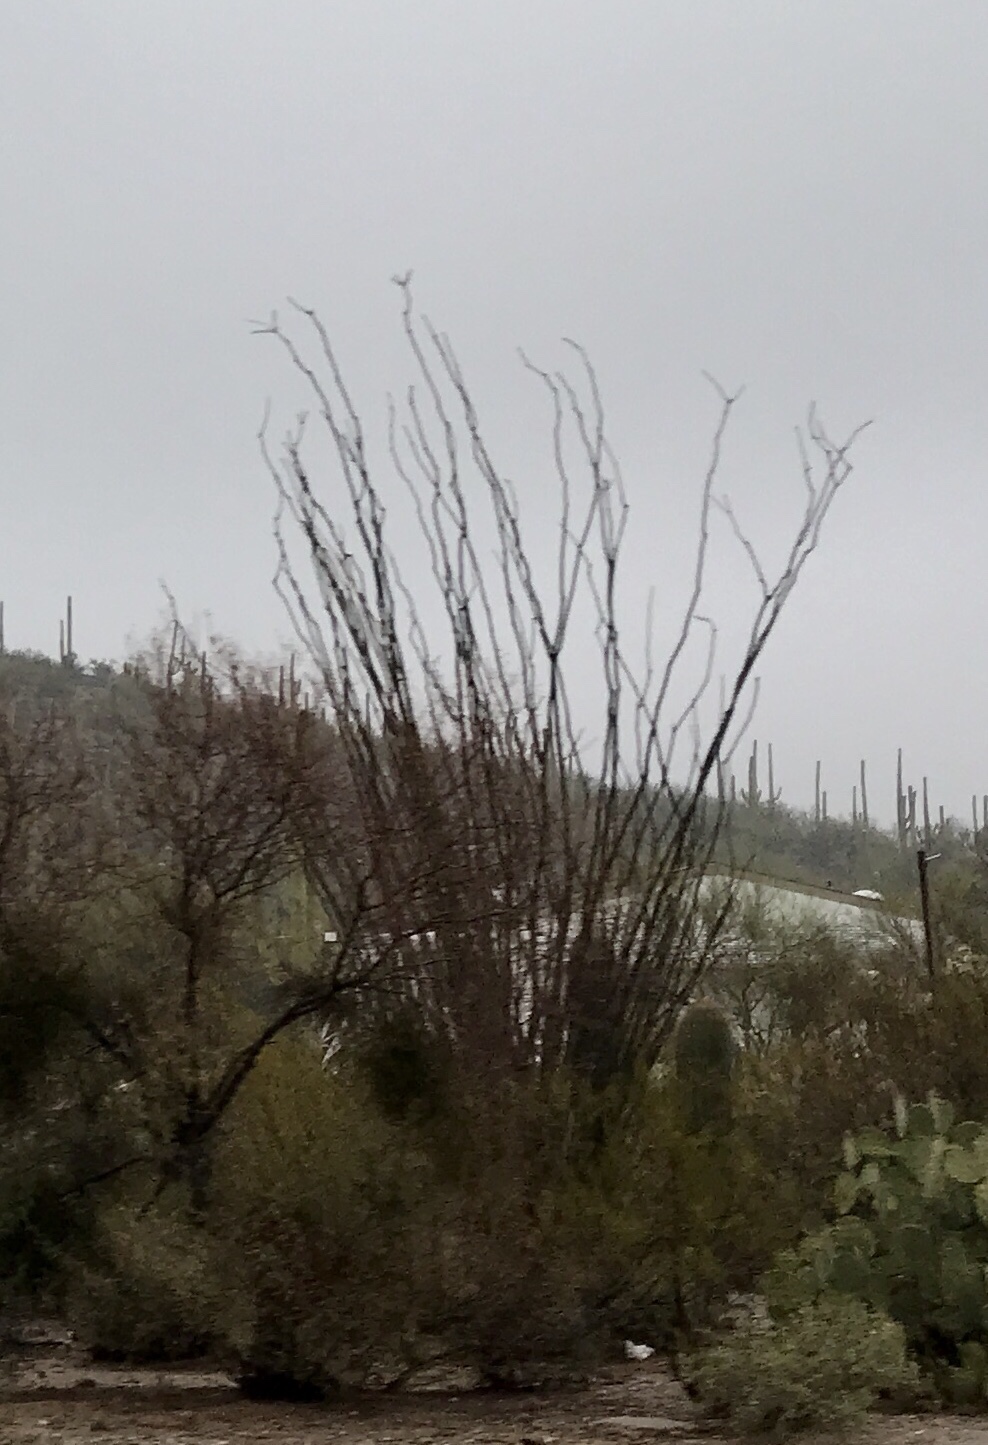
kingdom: Plantae
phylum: Tracheophyta
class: Magnoliopsida
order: Ericales
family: Fouquieriaceae
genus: Fouquieria
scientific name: Fouquieria splendens
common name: Vine-cactus
